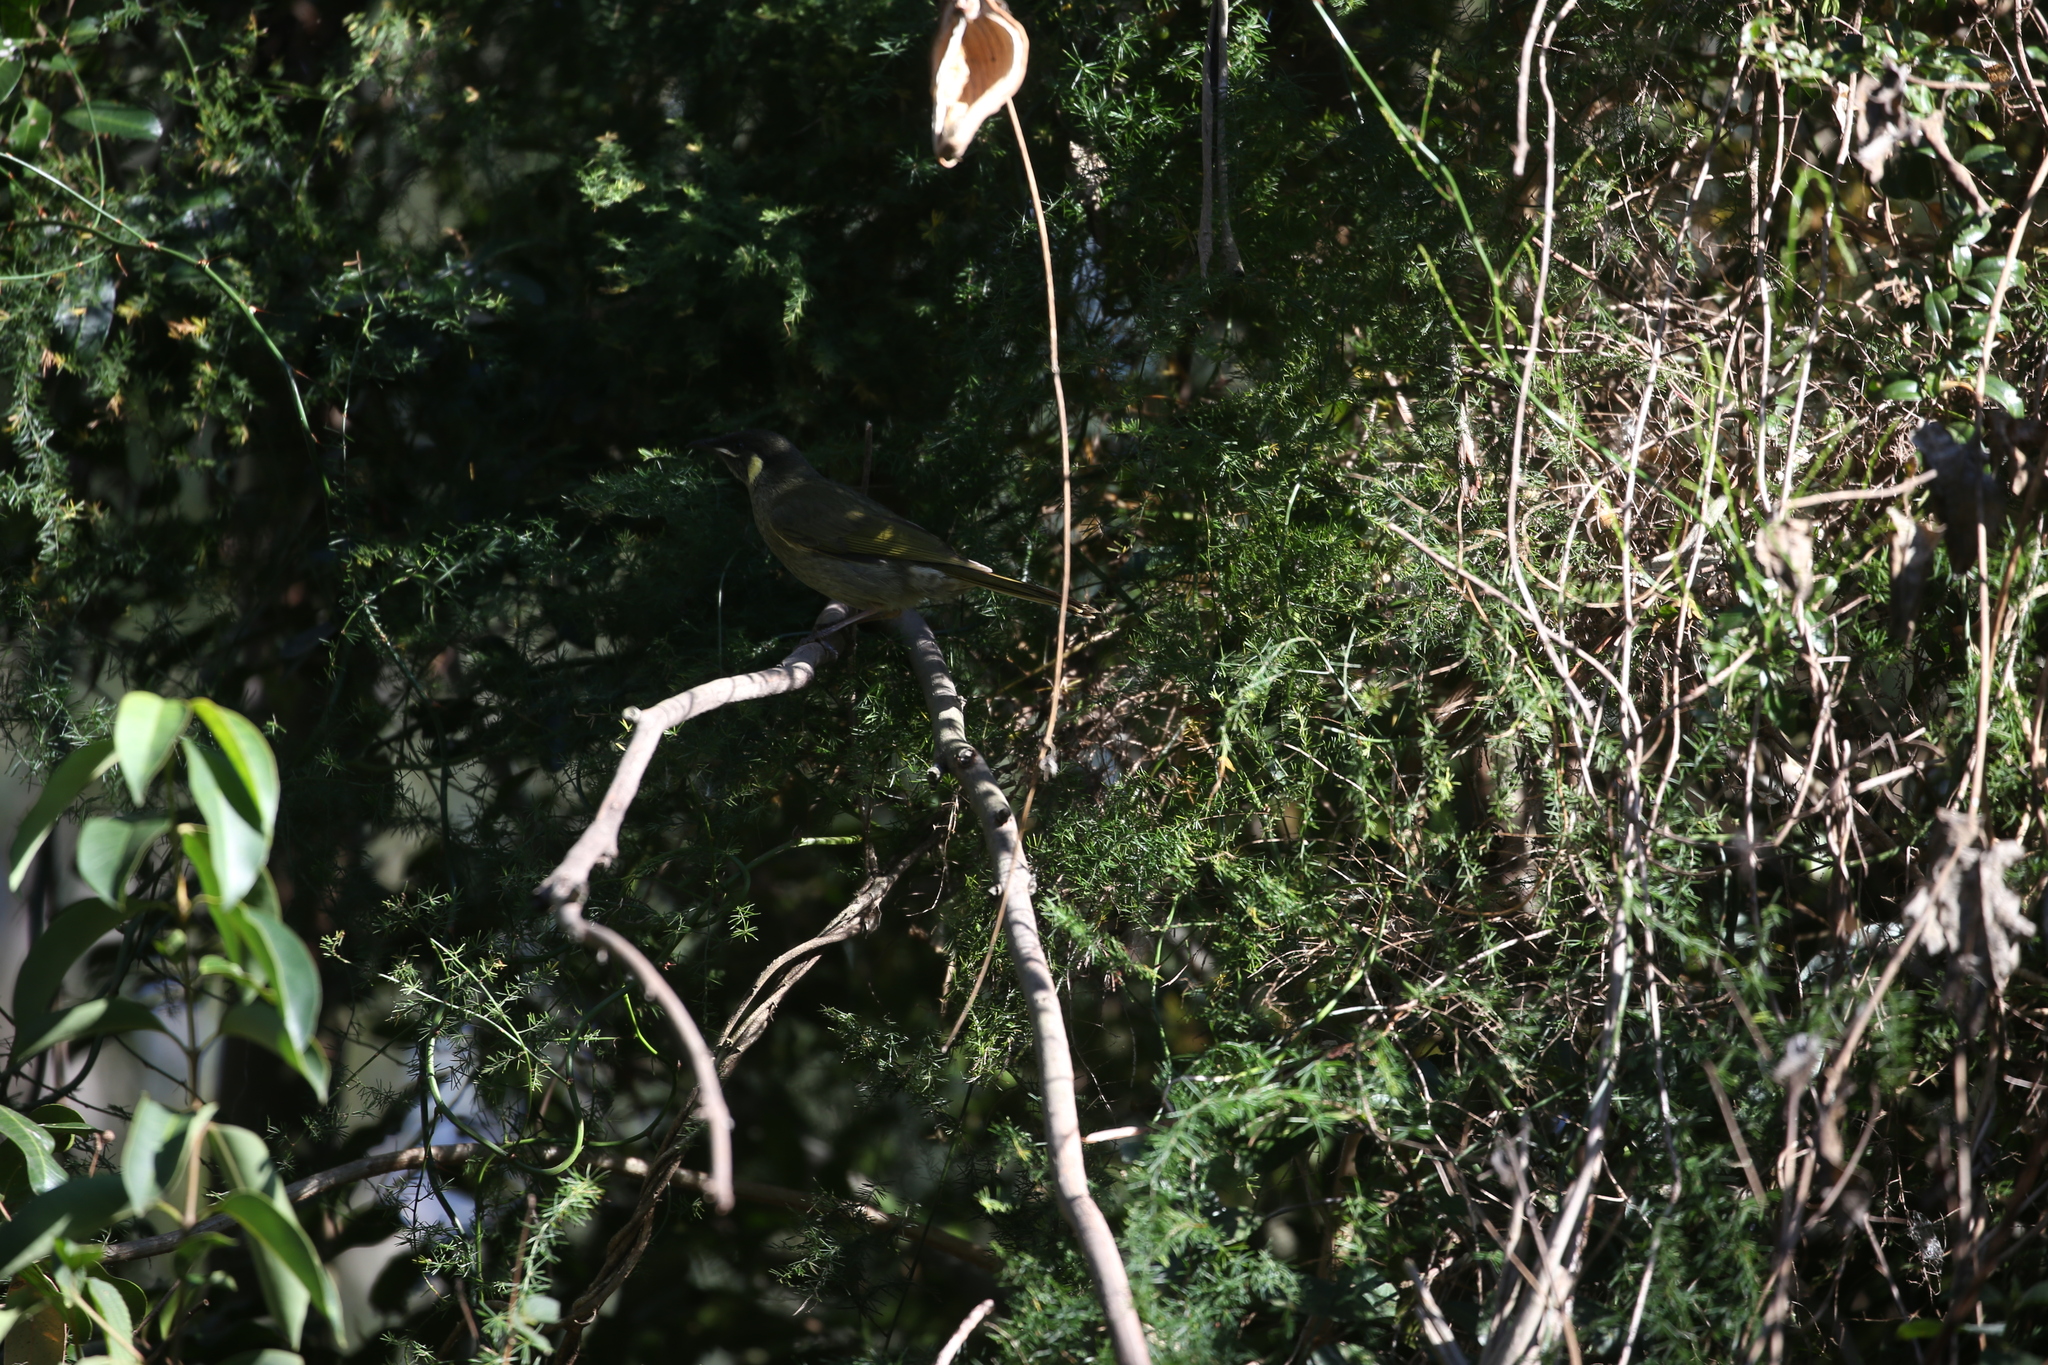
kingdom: Animalia
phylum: Chordata
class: Aves
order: Passeriformes
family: Meliphagidae
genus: Meliphaga
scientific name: Meliphaga lewinii
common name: Lewin's honeyeater
